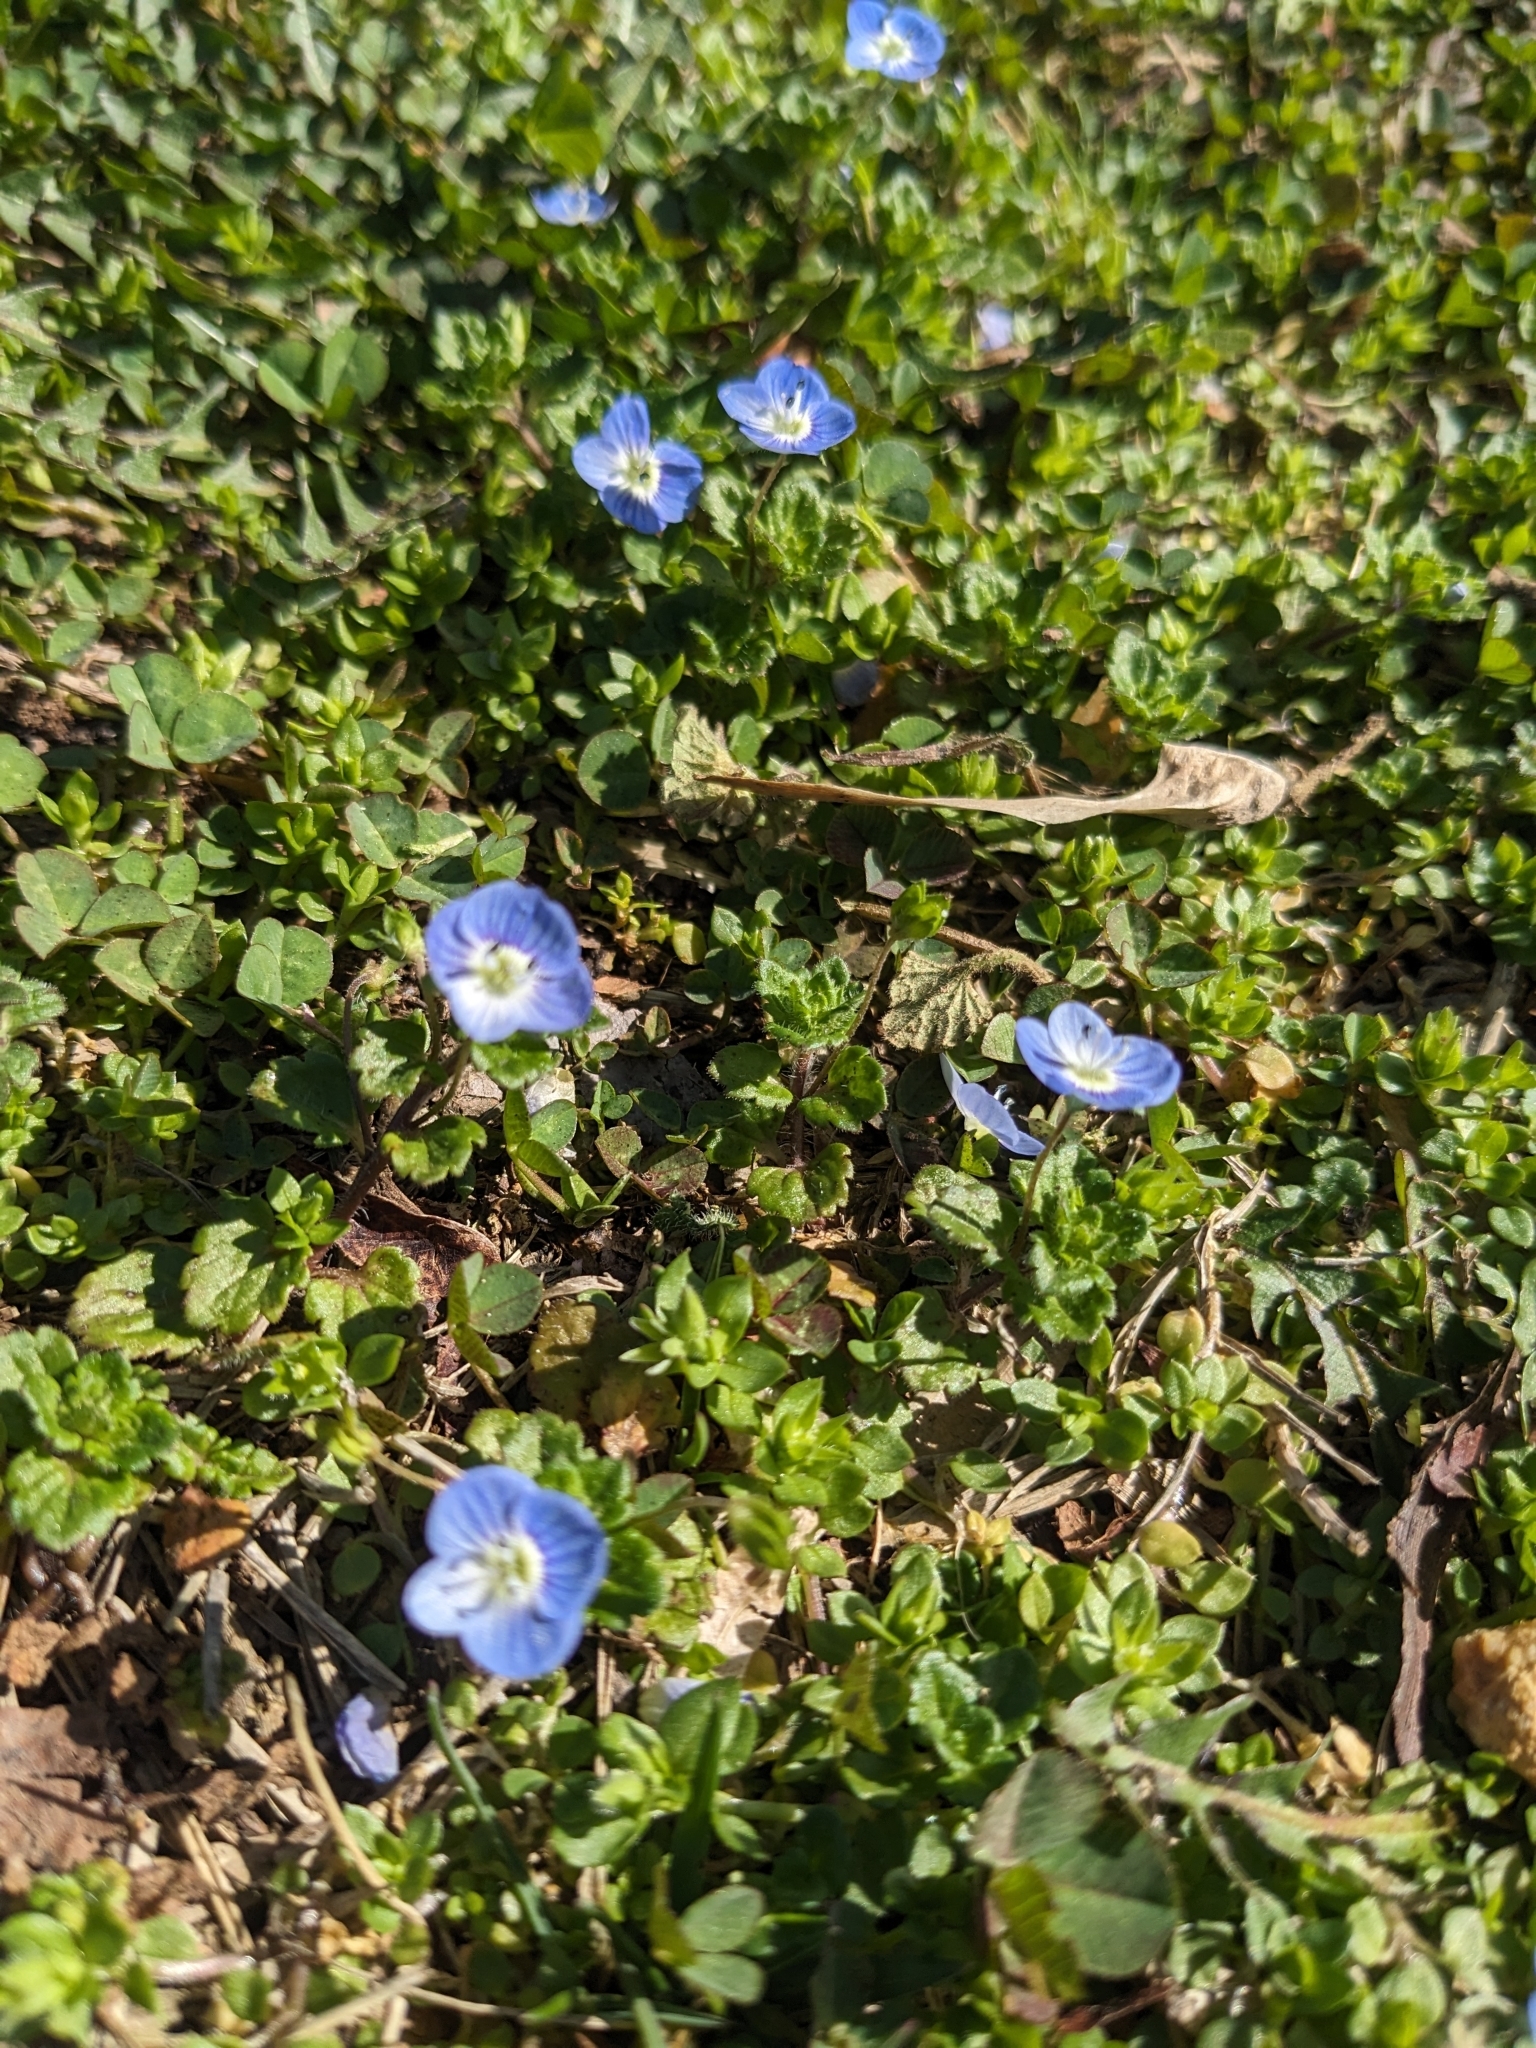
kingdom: Plantae
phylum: Tracheophyta
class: Magnoliopsida
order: Lamiales
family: Plantaginaceae
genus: Veronica
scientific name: Veronica persica
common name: Common field-speedwell
